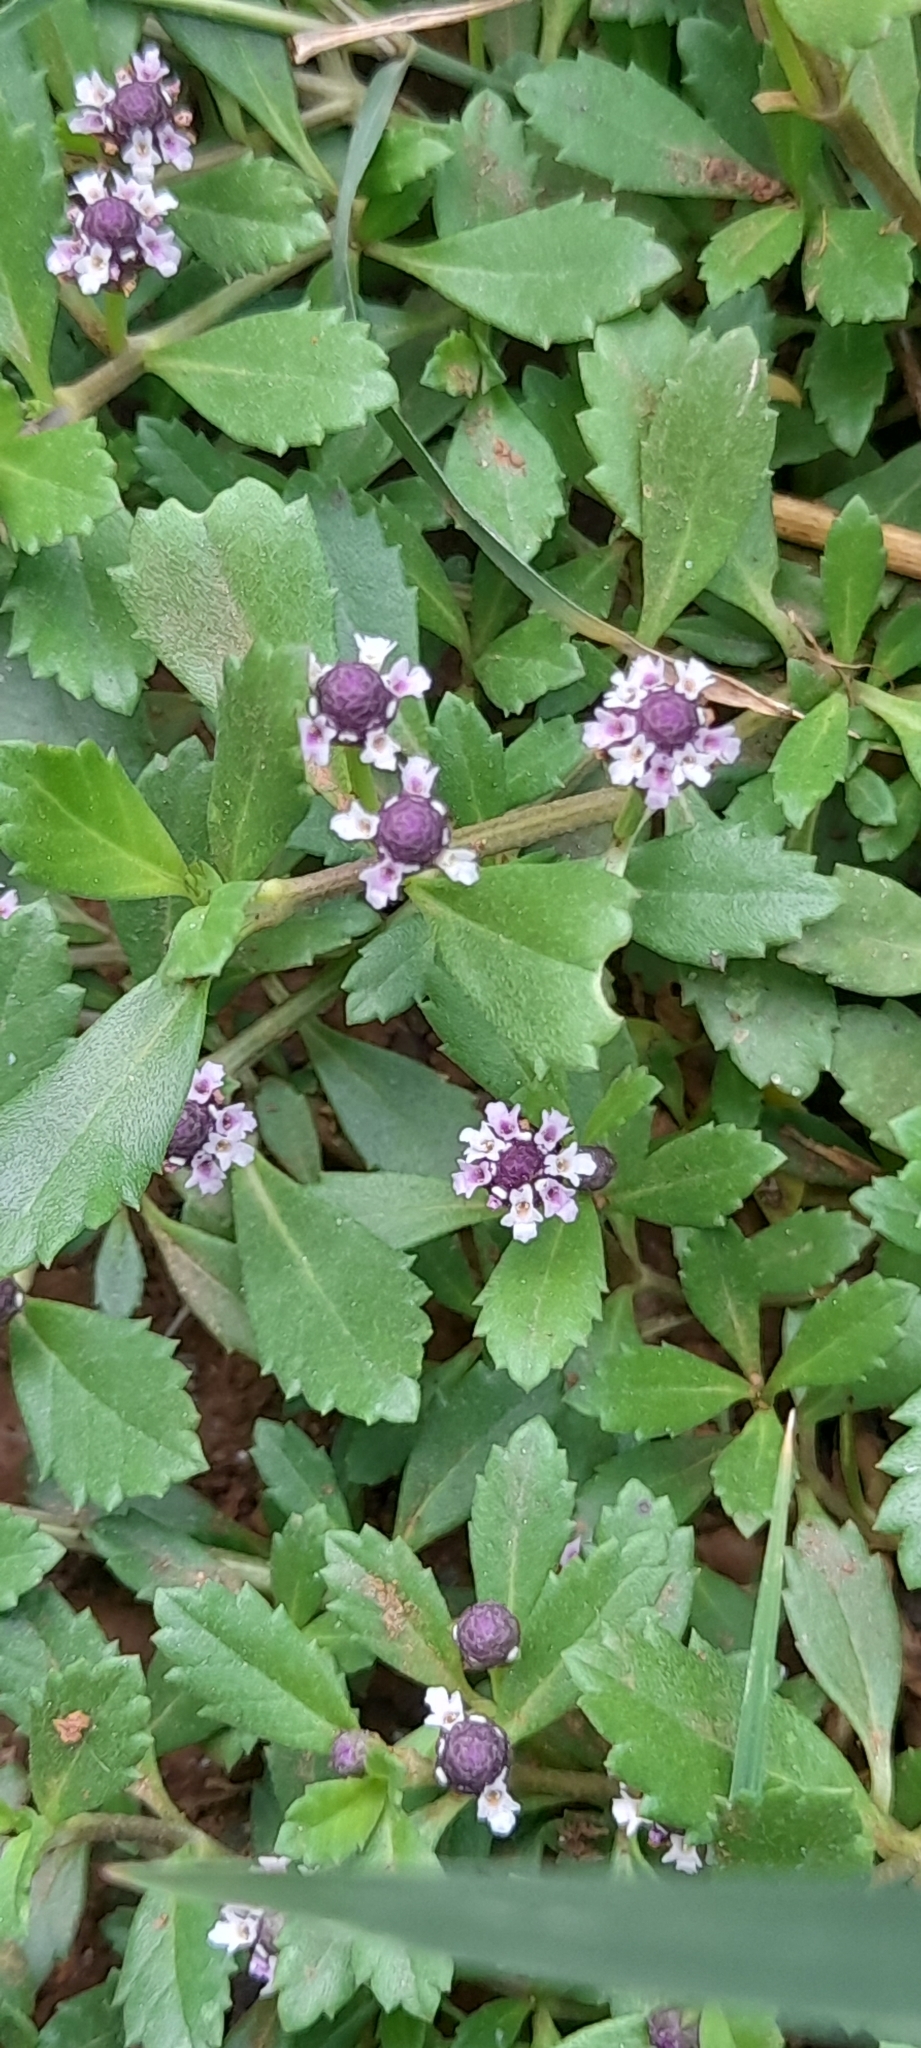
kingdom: Plantae
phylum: Tracheophyta
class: Magnoliopsida
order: Lamiales
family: Verbenaceae
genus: Phyla
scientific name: Phyla nodiflora
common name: Frogfruit
